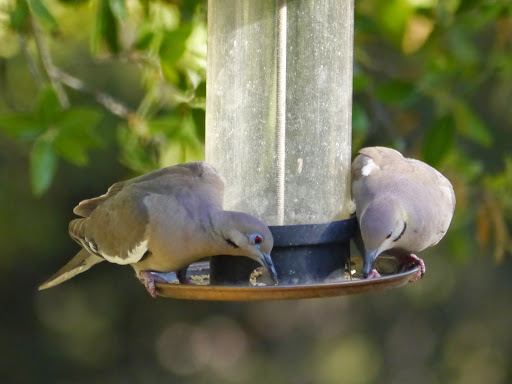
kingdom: Animalia
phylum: Chordata
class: Aves
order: Columbiformes
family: Columbidae
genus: Zenaida
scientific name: Zenaida asiatica
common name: White-winged dove
